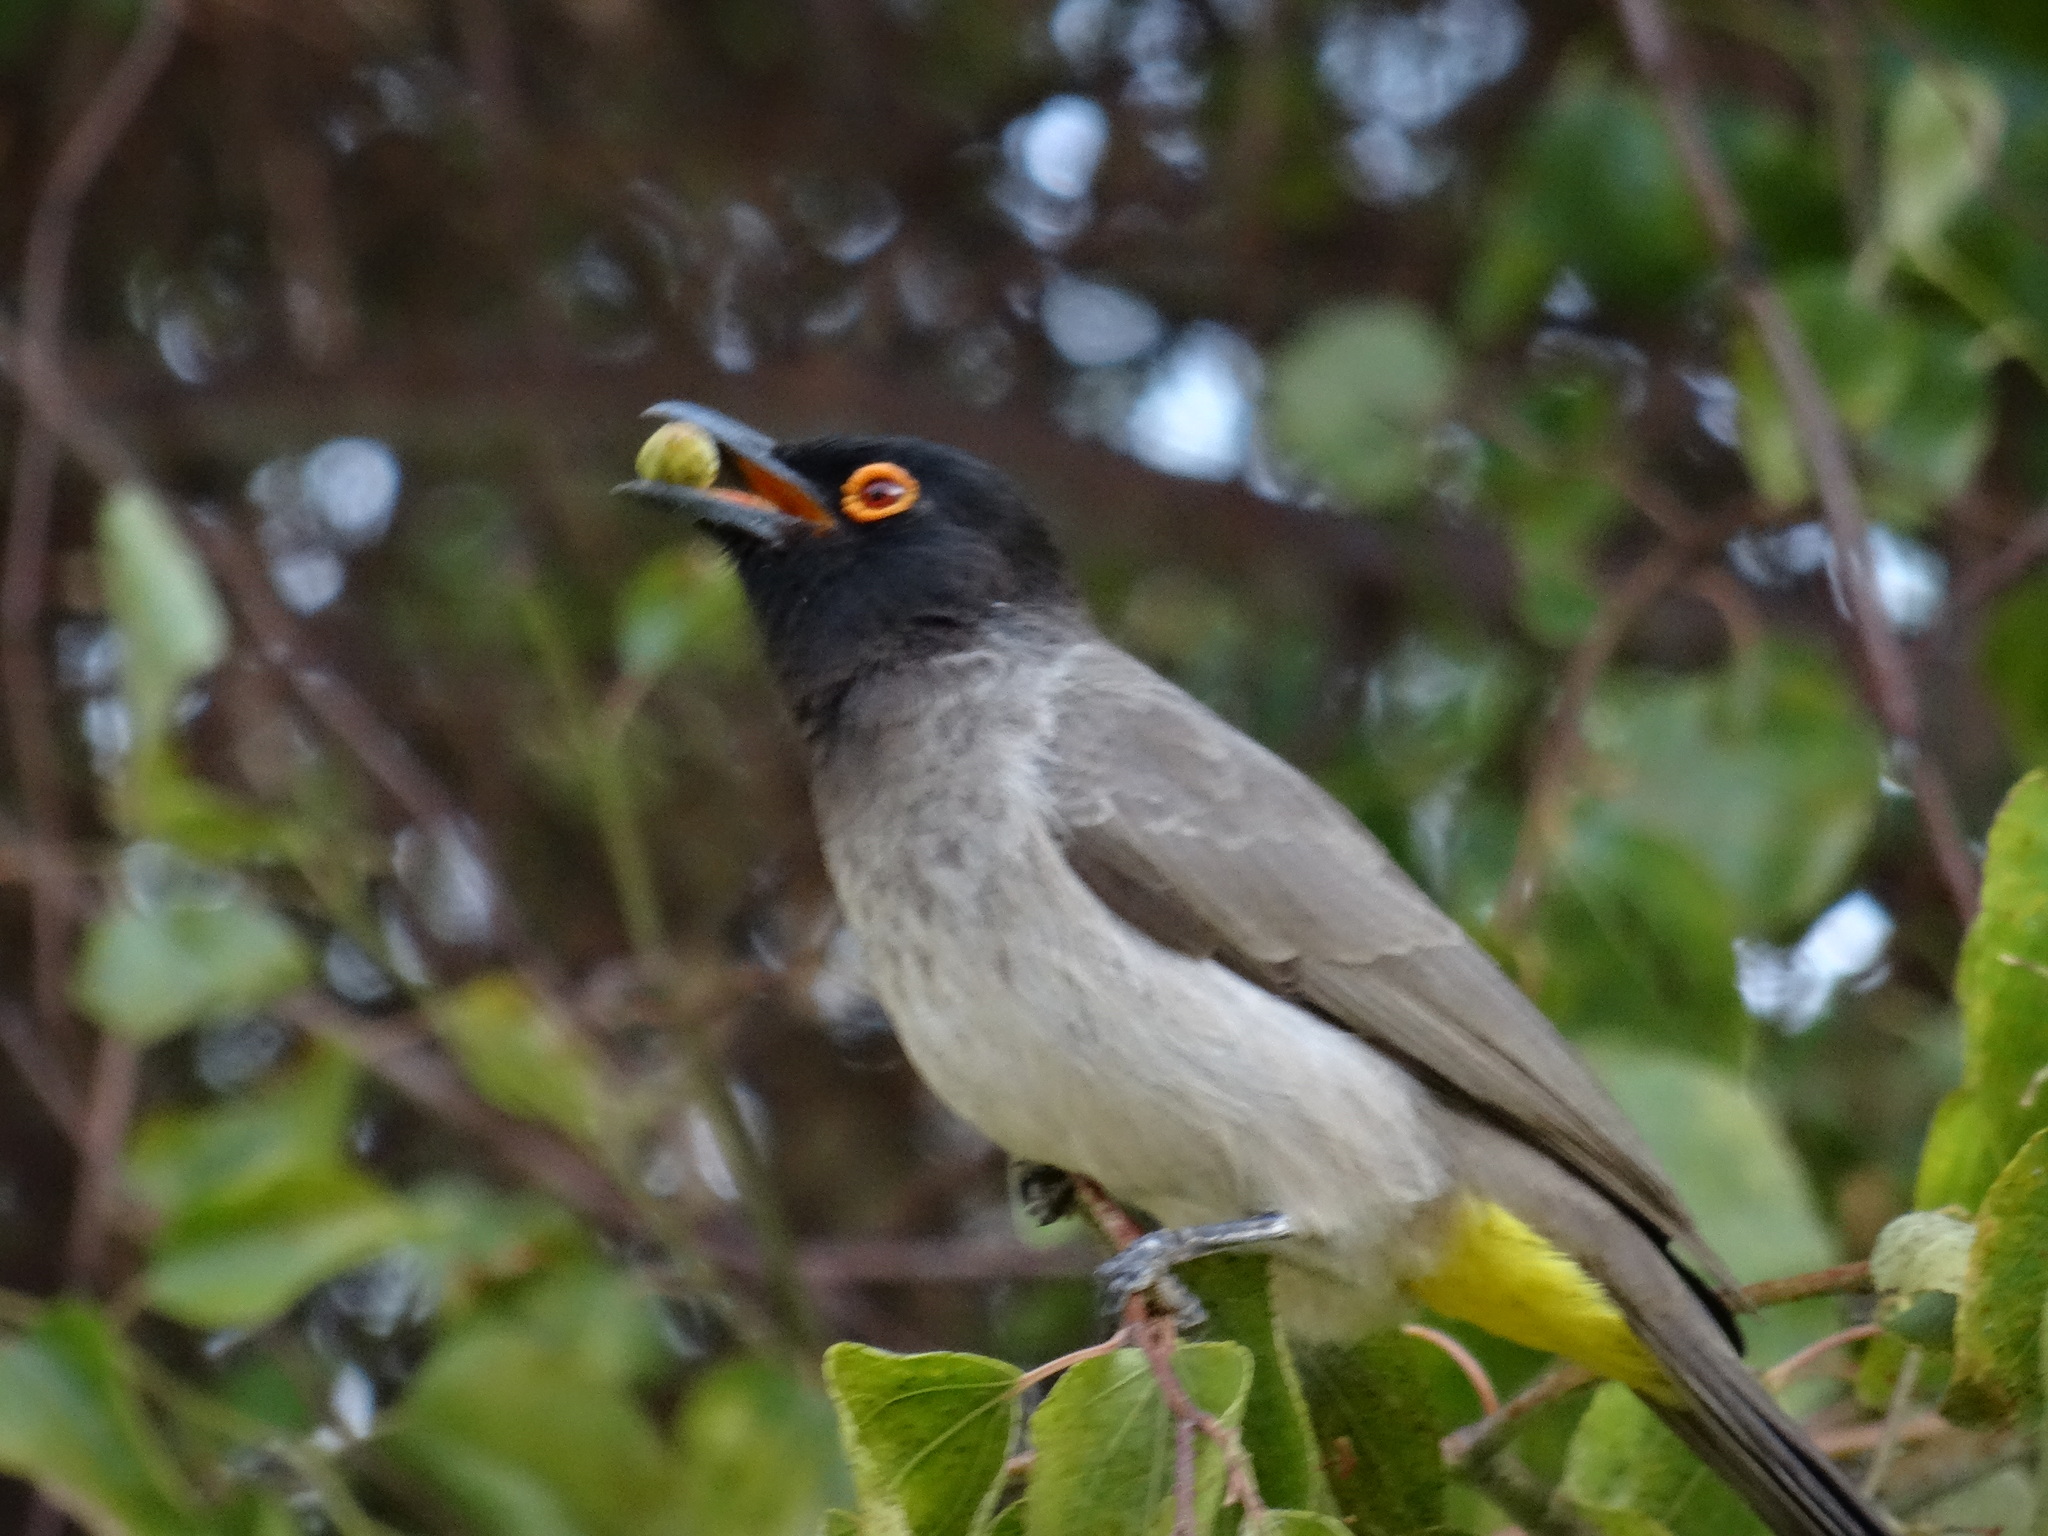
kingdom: Animalia
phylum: Chordata
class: Aves
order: Passeriformes
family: Pycnonotidae
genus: Pycnonotus
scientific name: Pycnonotus nigricans
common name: African red-eyed bulbul
